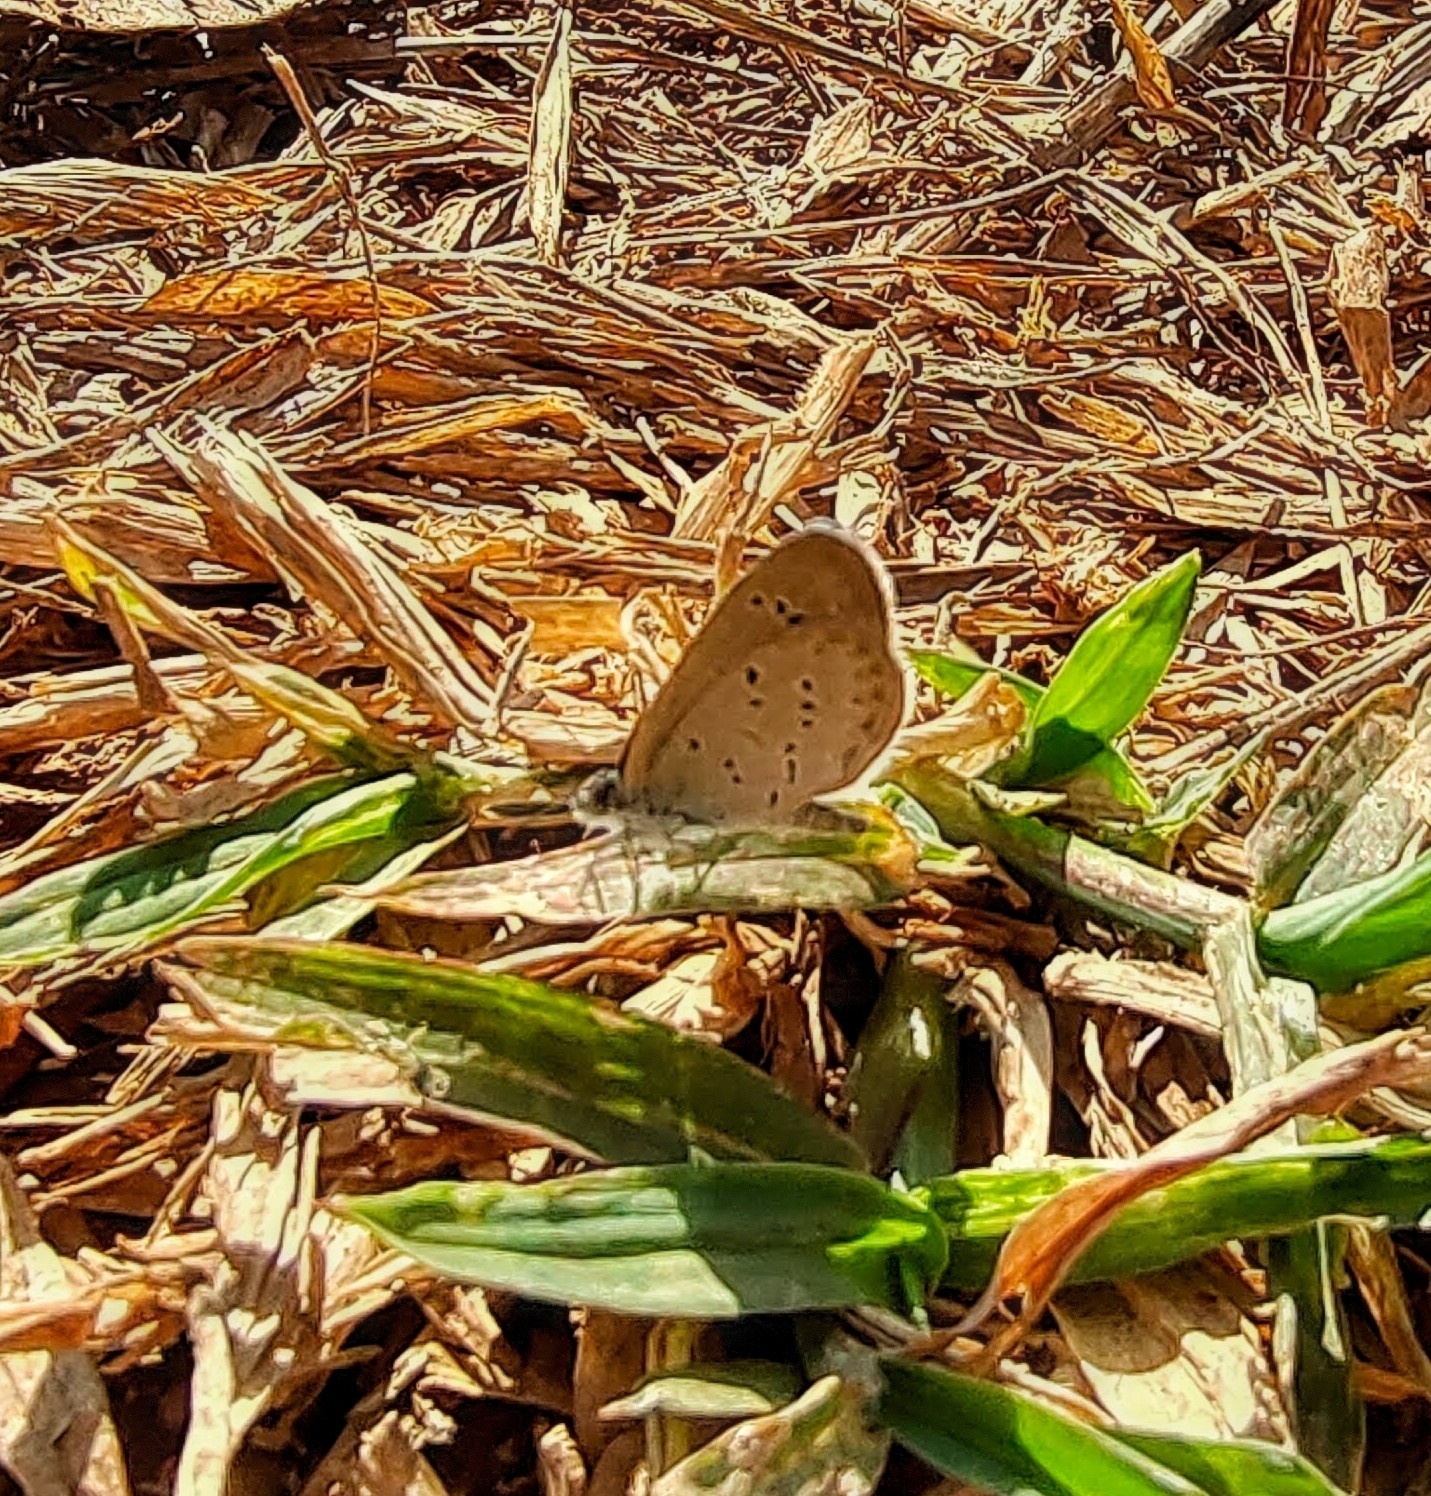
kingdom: Animalia
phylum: Arthropoda
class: Insecta
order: Lepidoptera
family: Lycaenidae
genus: Zizina
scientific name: Zizina otis
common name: Lesser grass blue
